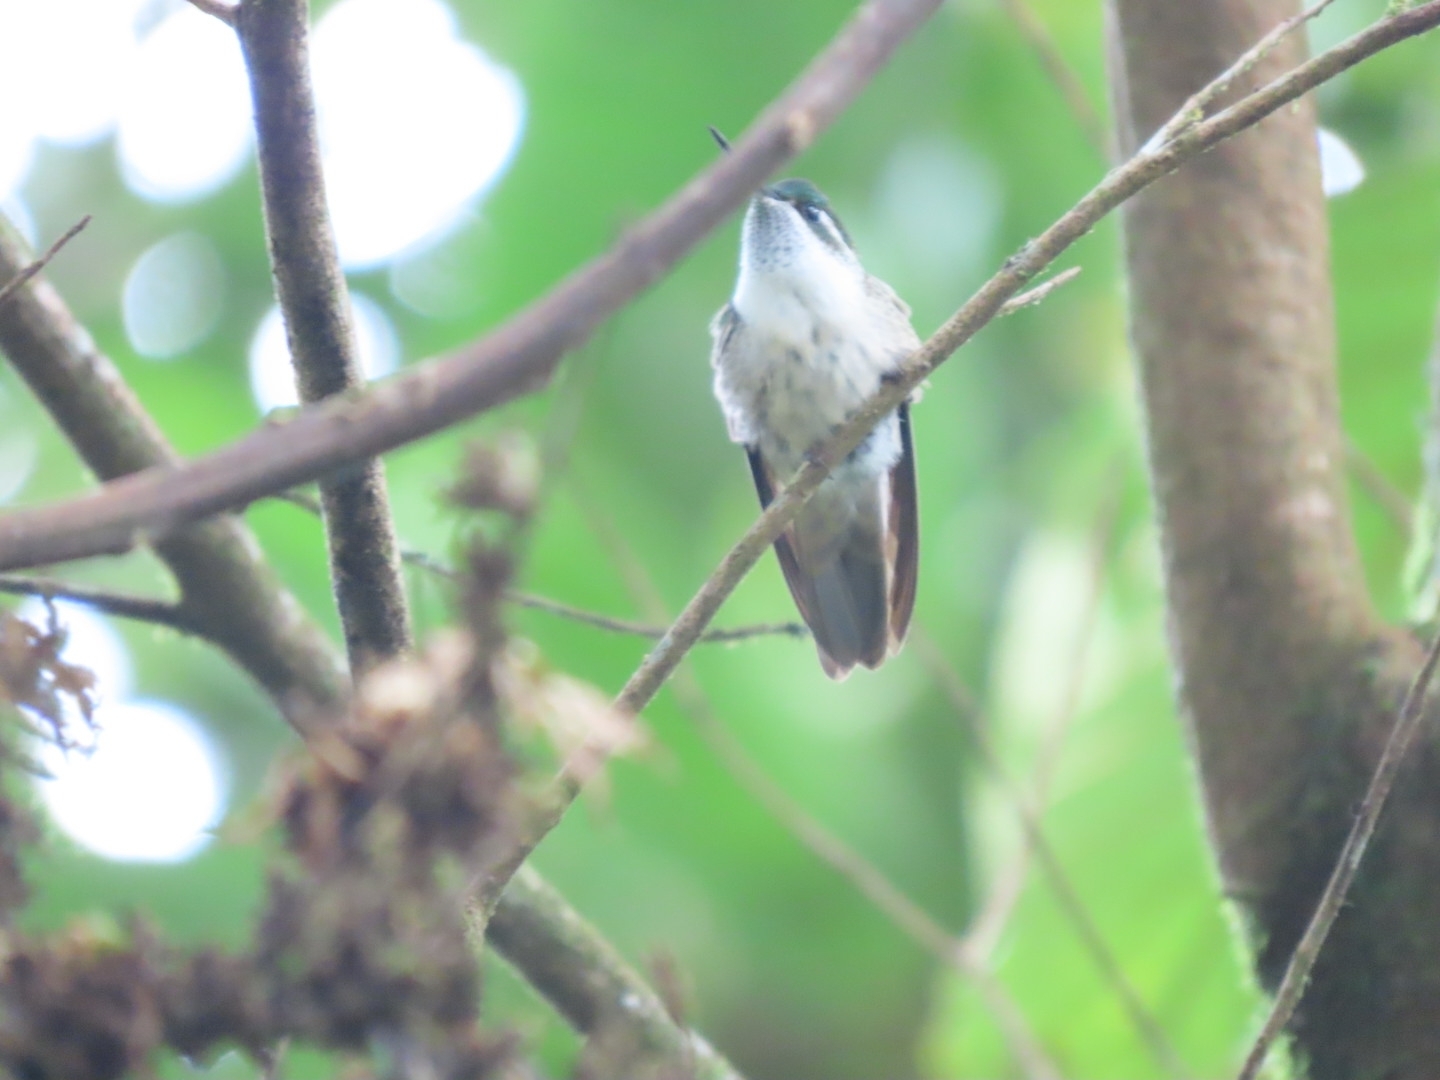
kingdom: Animalia
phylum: Chordata
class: Aves
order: Apodiformes
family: Trochilidae
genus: Lampornis
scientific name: Lampornis viridipallens
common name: Green-throated mountain-gem
